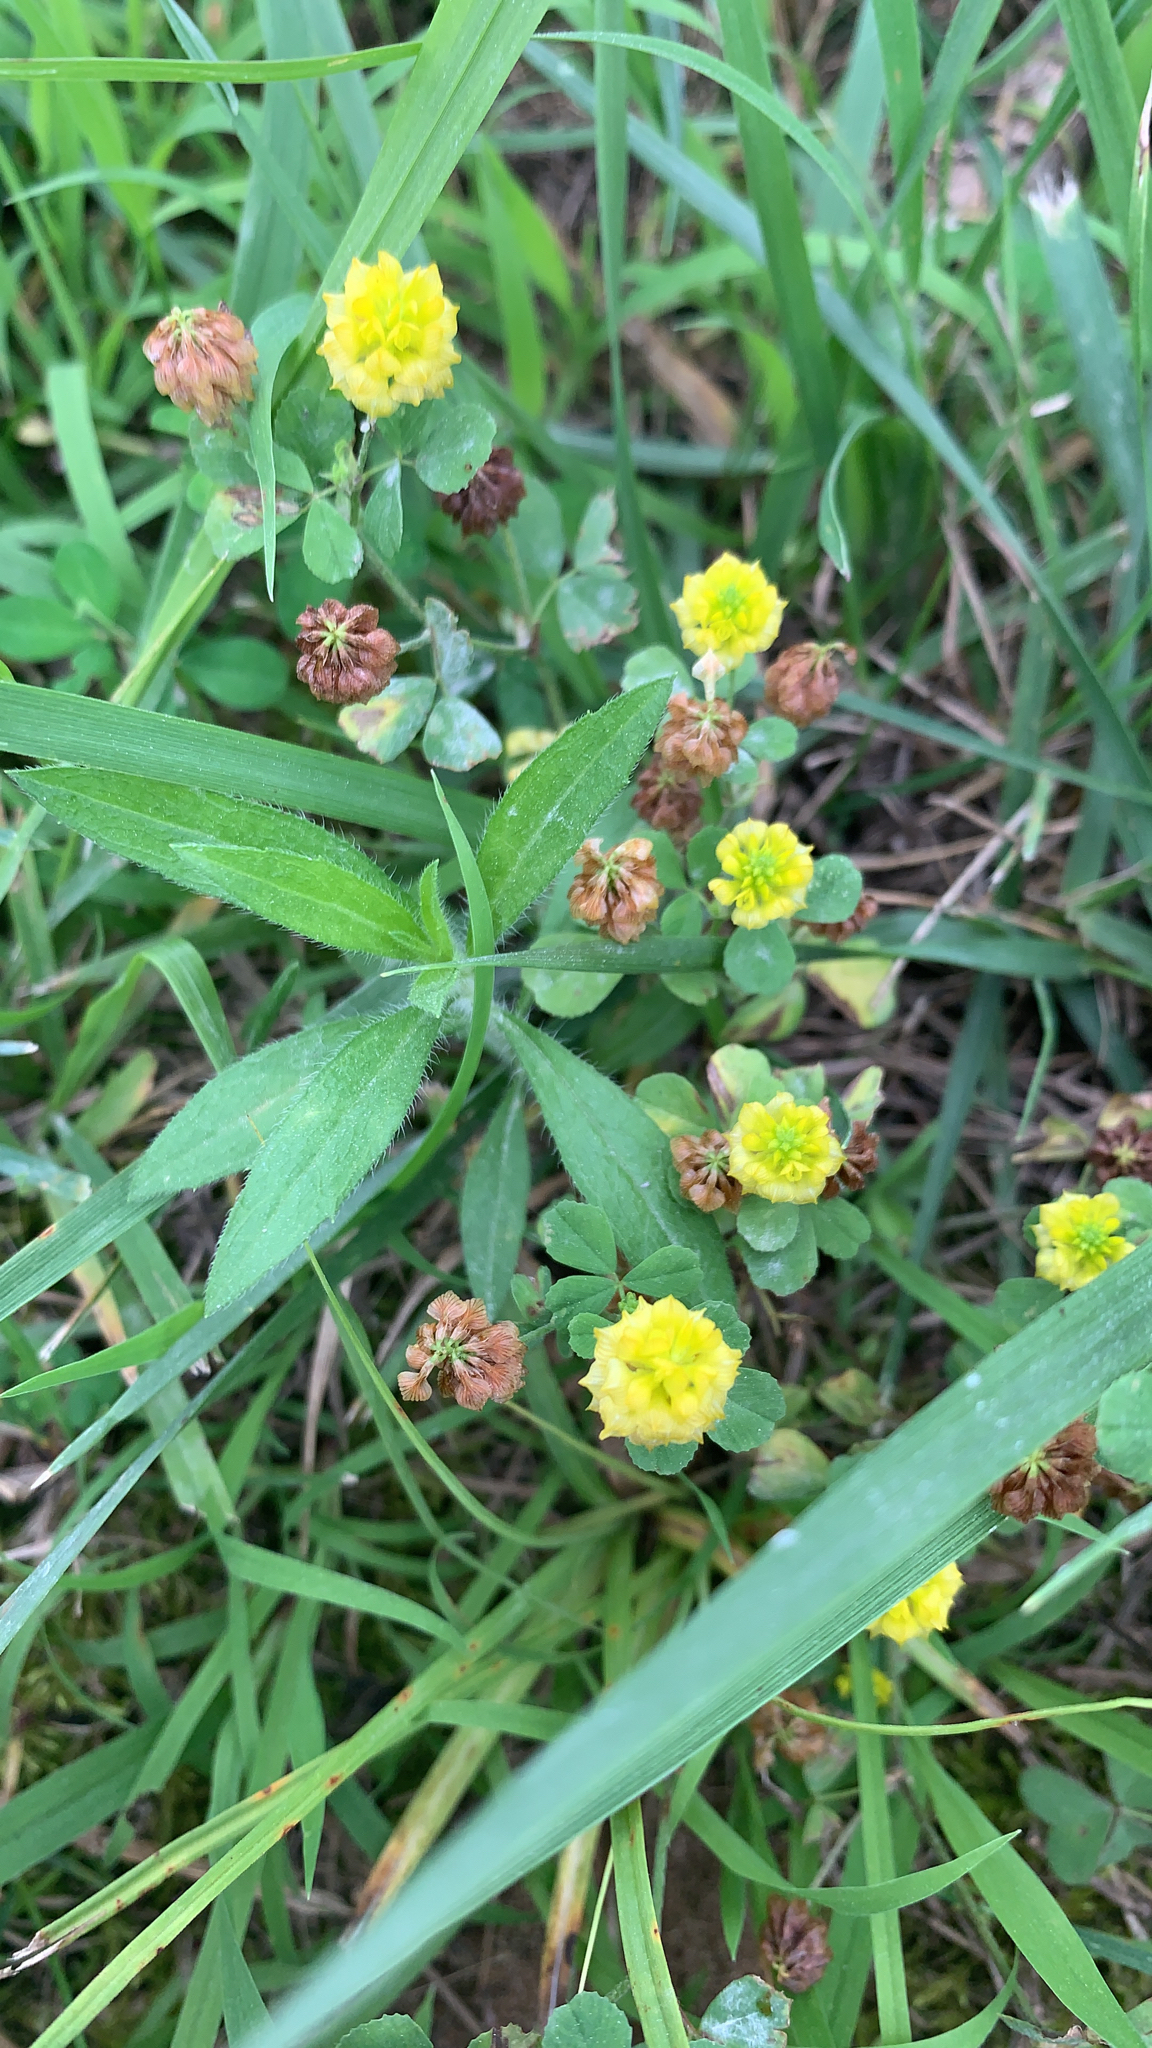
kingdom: Plantae
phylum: Tracheophyta
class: Magnoliopsida
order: Fabales
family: Fabaceae
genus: Trifolium
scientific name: Trifolium campestre
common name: Field clover
